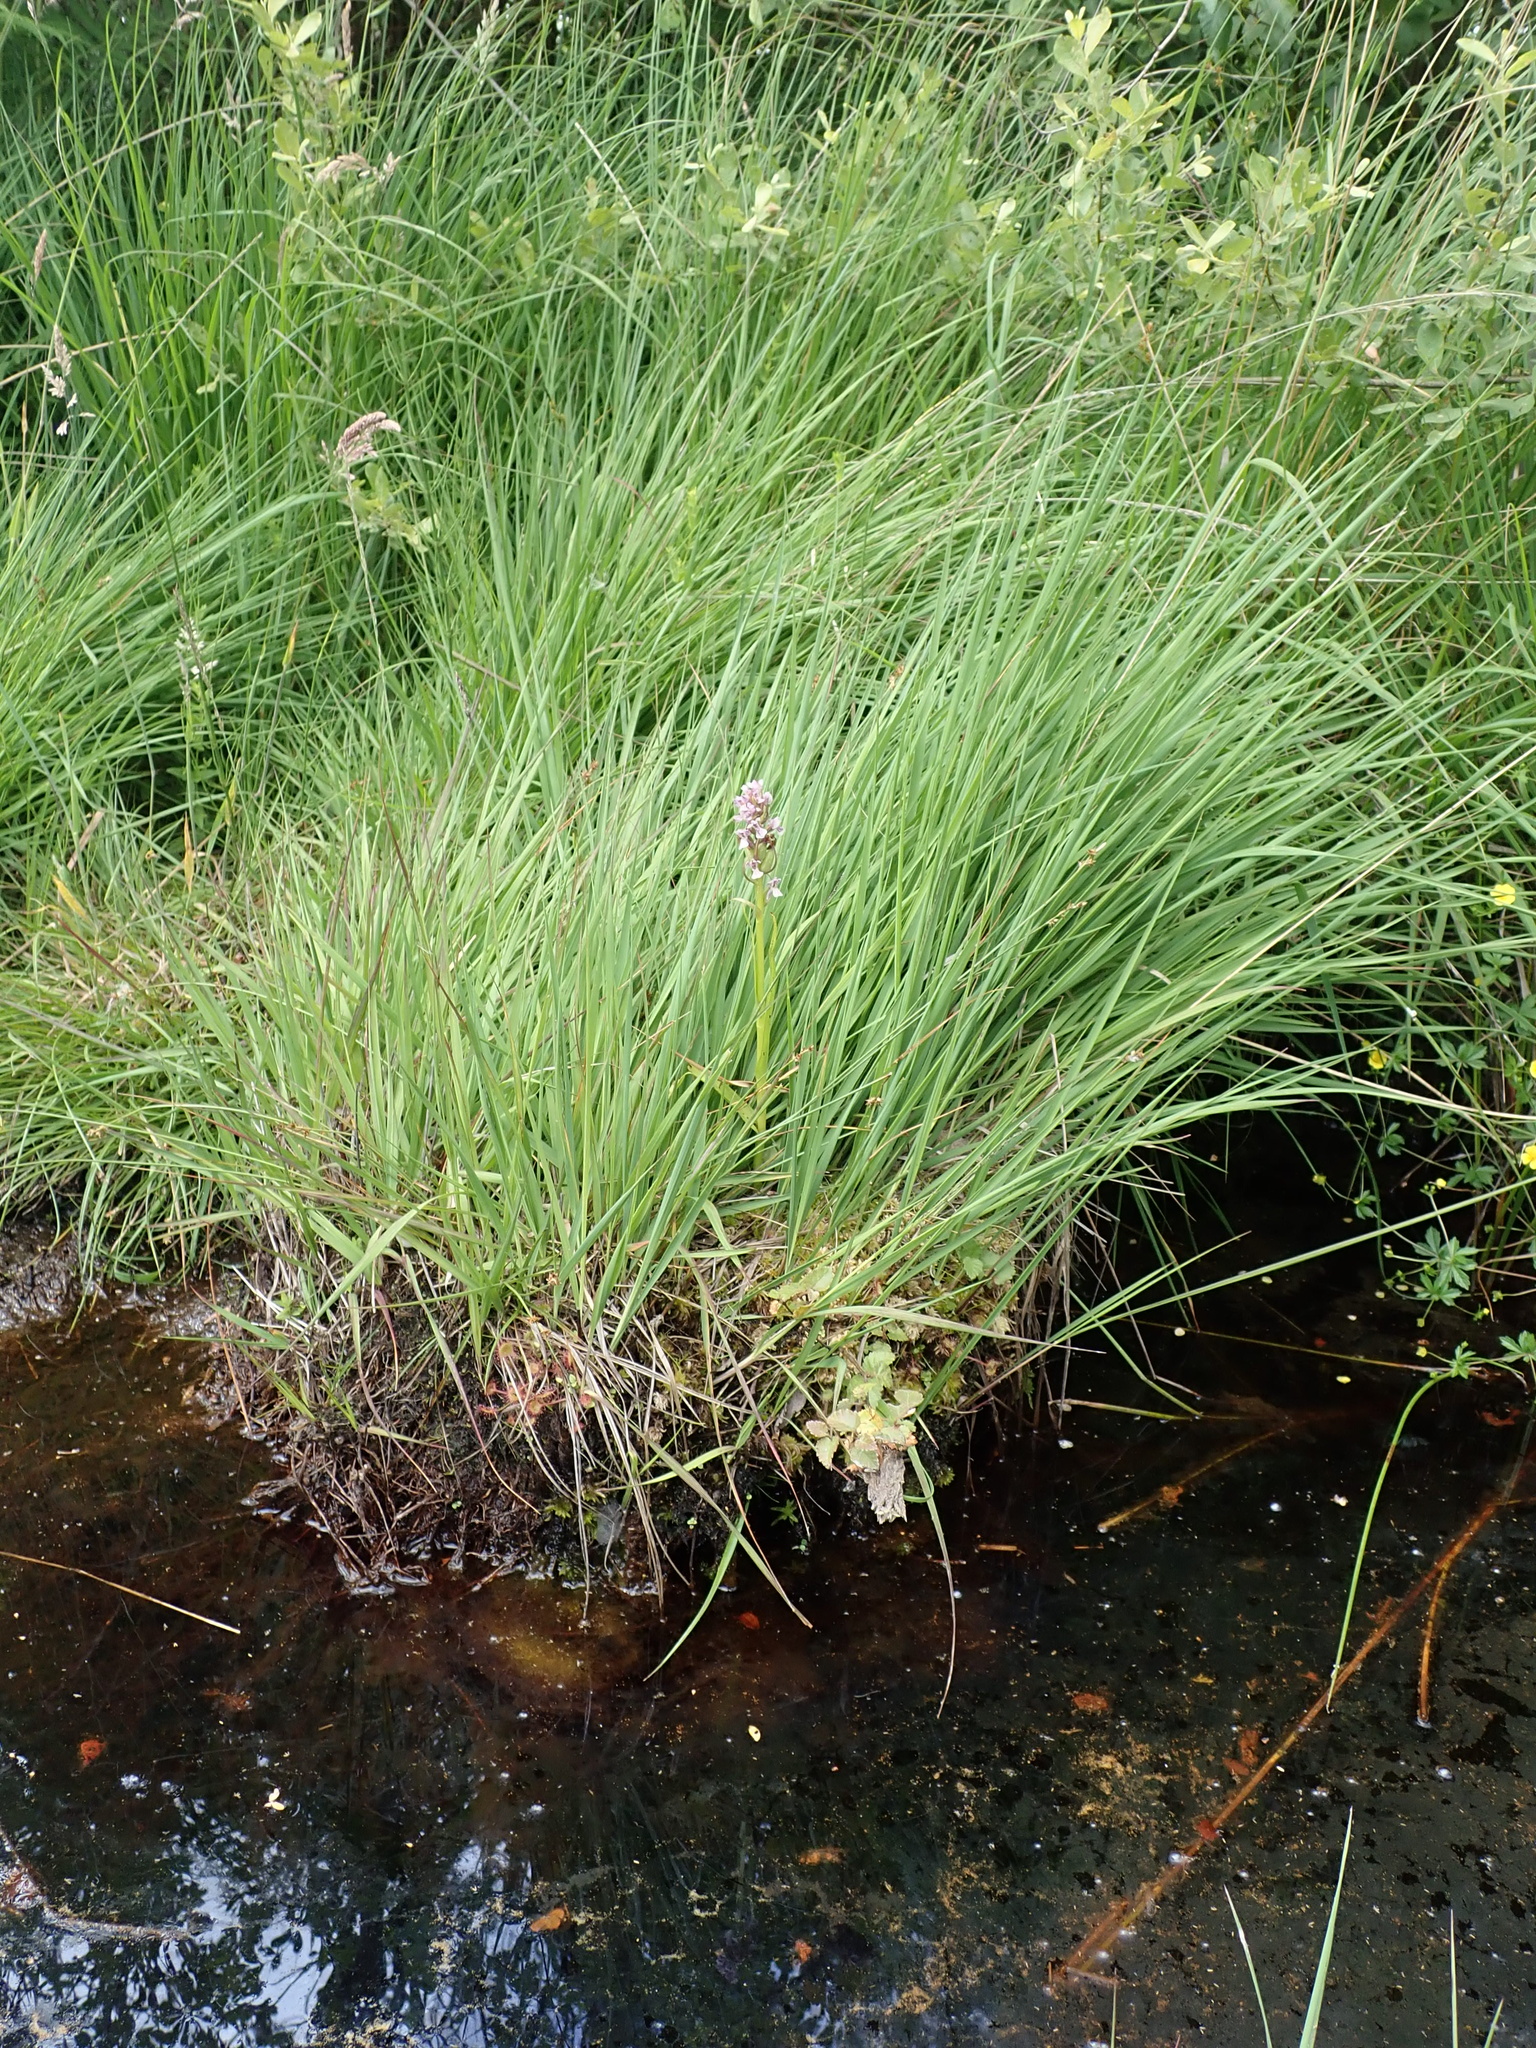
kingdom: Plantae
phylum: Tracheophyta
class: Liliopsida
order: Asparagales
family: Orchidaceae
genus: Dactylorhiza
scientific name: Dactylorhiza incarnata
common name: Early marsh-orchid
